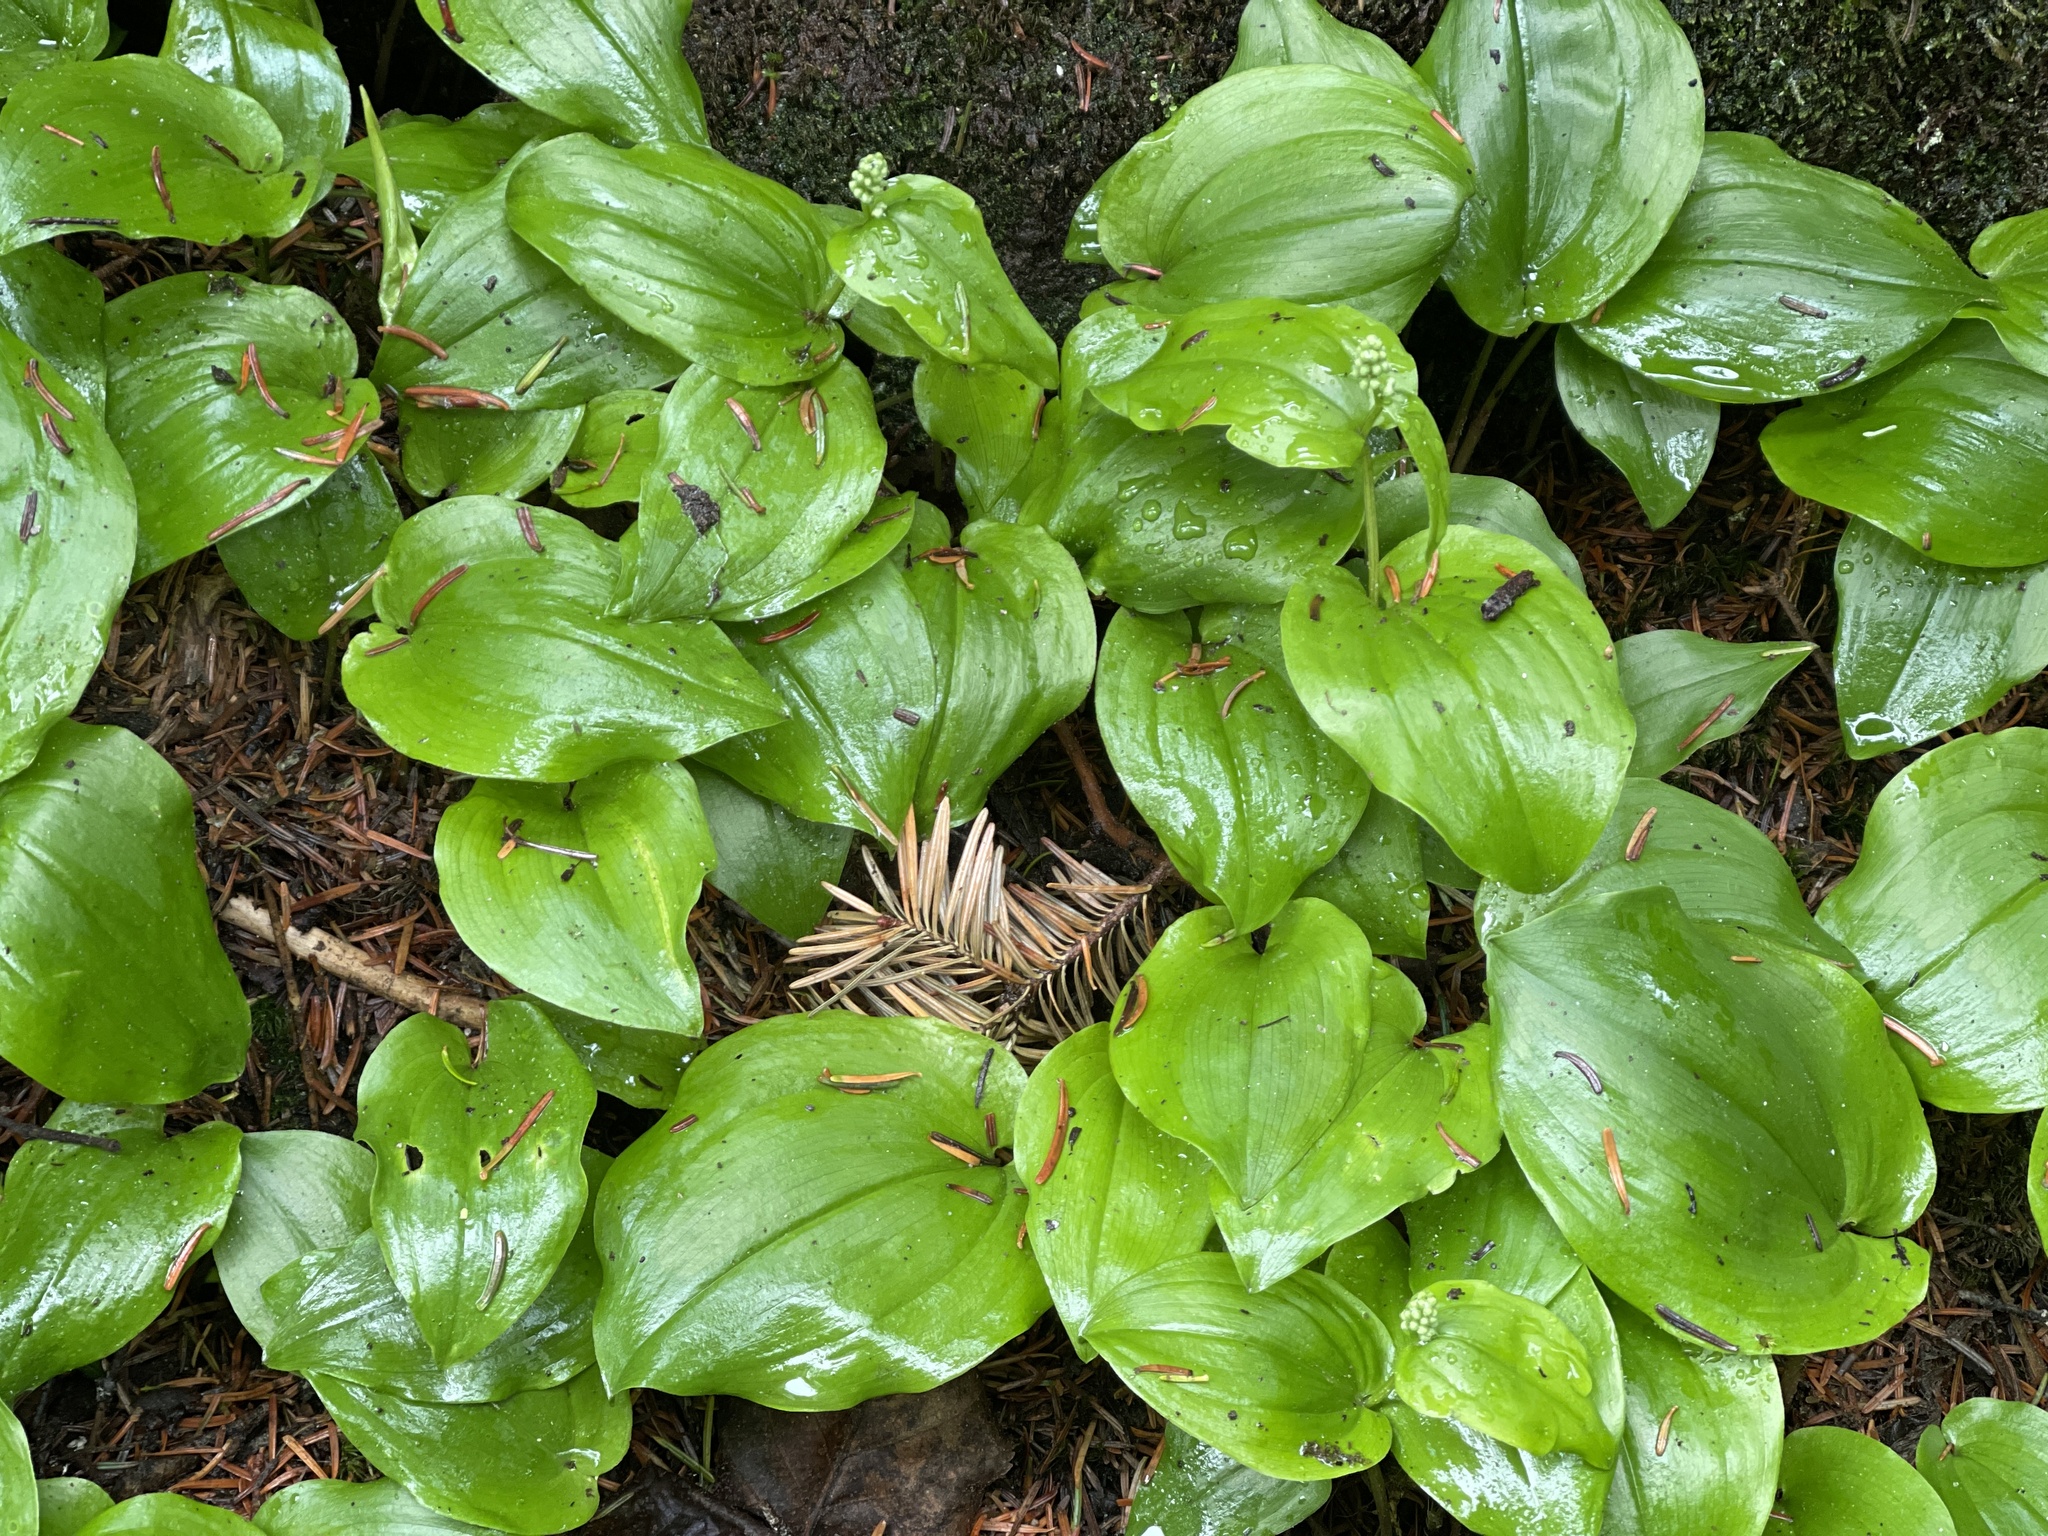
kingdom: Plantae
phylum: Tracheophyta
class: Liliopsida
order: Asparagales
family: Asparagaceae
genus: Maianthemum
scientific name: Maianthemum canadense
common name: False lily-of-the-valley
